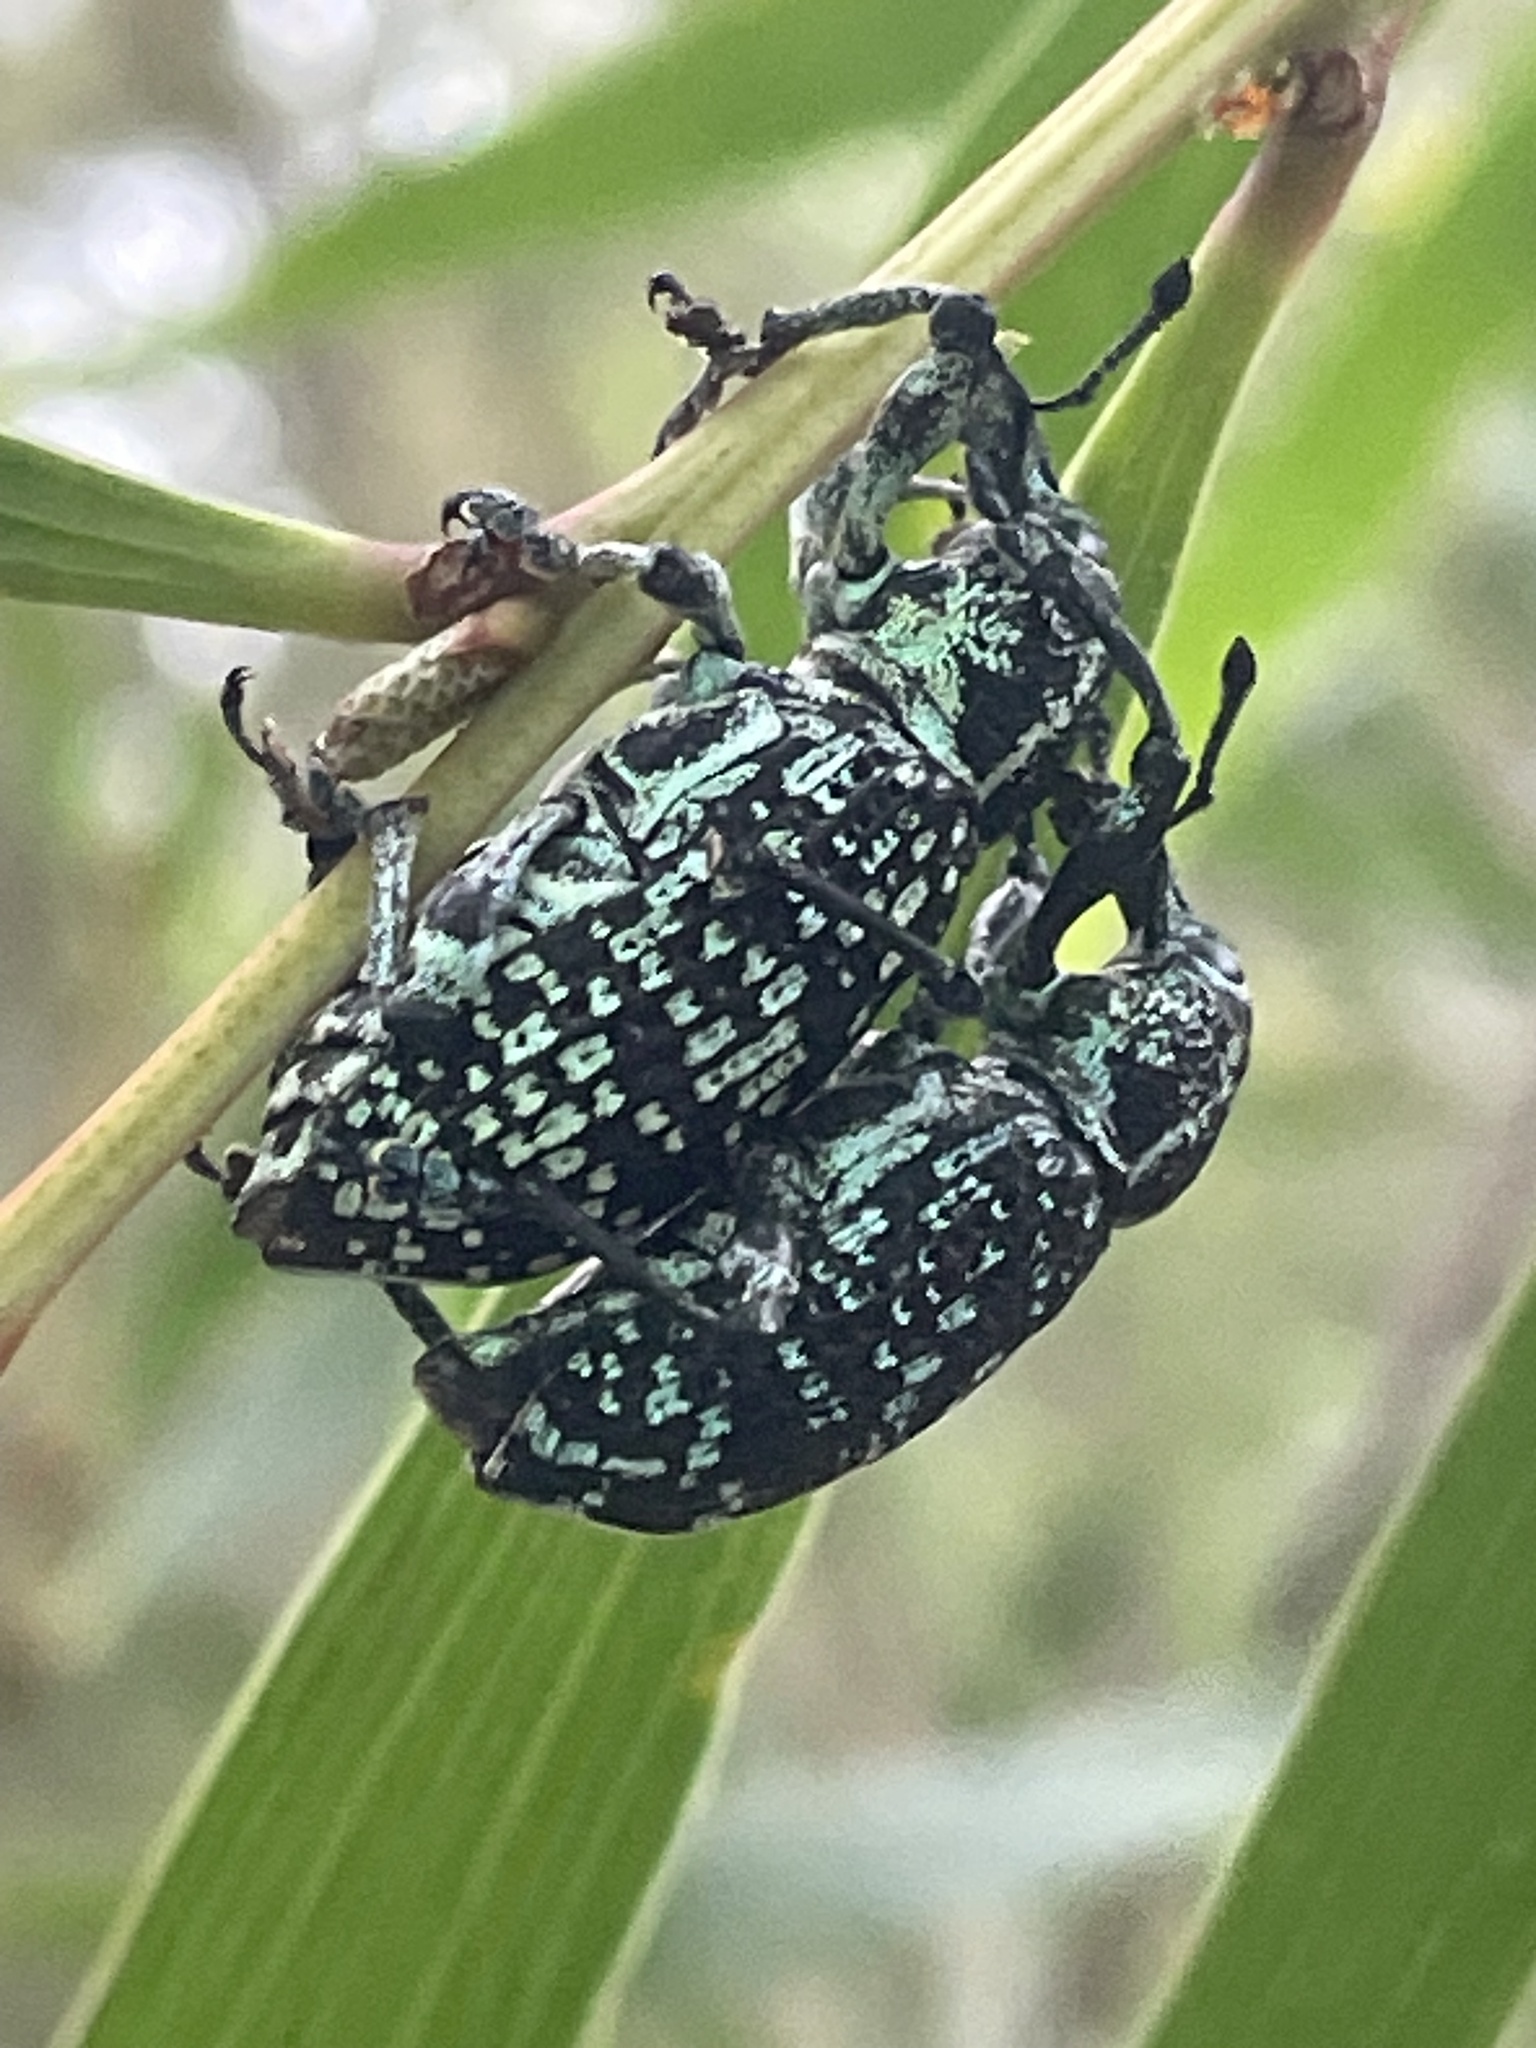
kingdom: Animalia
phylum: Arthropoda
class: Insecta
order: Coleoptera
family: Curculionidae
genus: Chrysolopus
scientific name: Chrysolopus spectabilis
